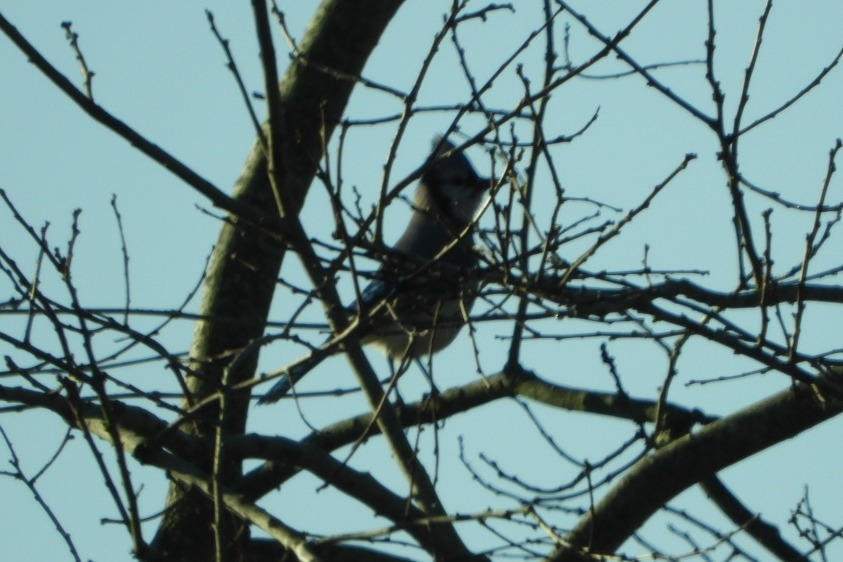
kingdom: Animalia
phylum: Chordata
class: Aves
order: Passeriformes
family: Corvidae
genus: Cyanocitta
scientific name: Cyanocitta cristata
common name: Blue jay
